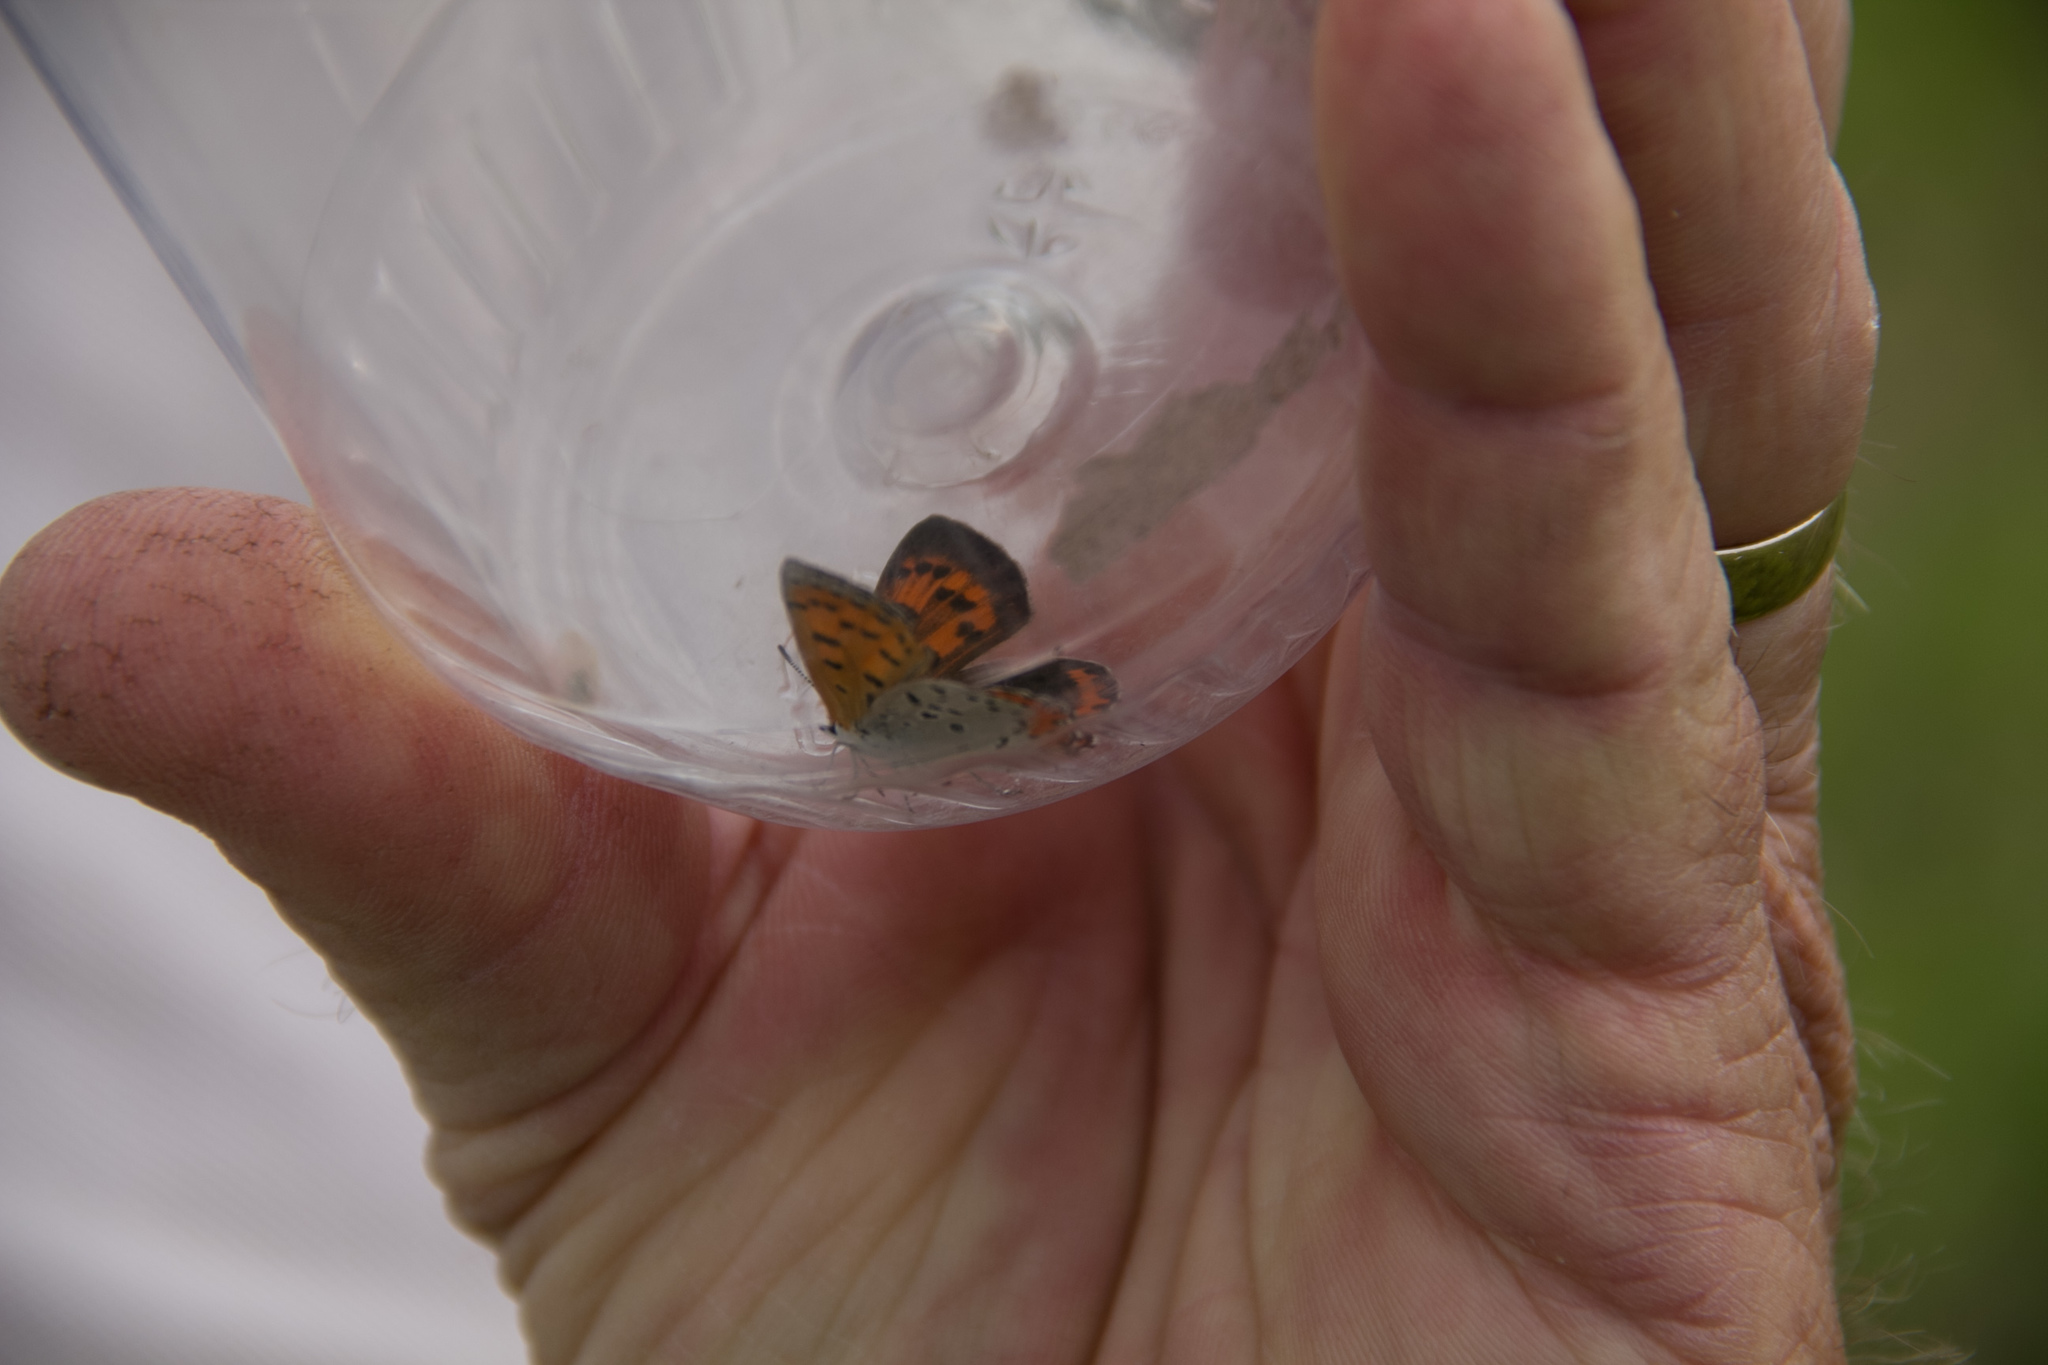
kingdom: Animalia
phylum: Arthropoda
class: Insecta
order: Lepidoptera
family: Lycaenidae
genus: Lycaena
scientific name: Lycaena hypophlaeas
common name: American copper
